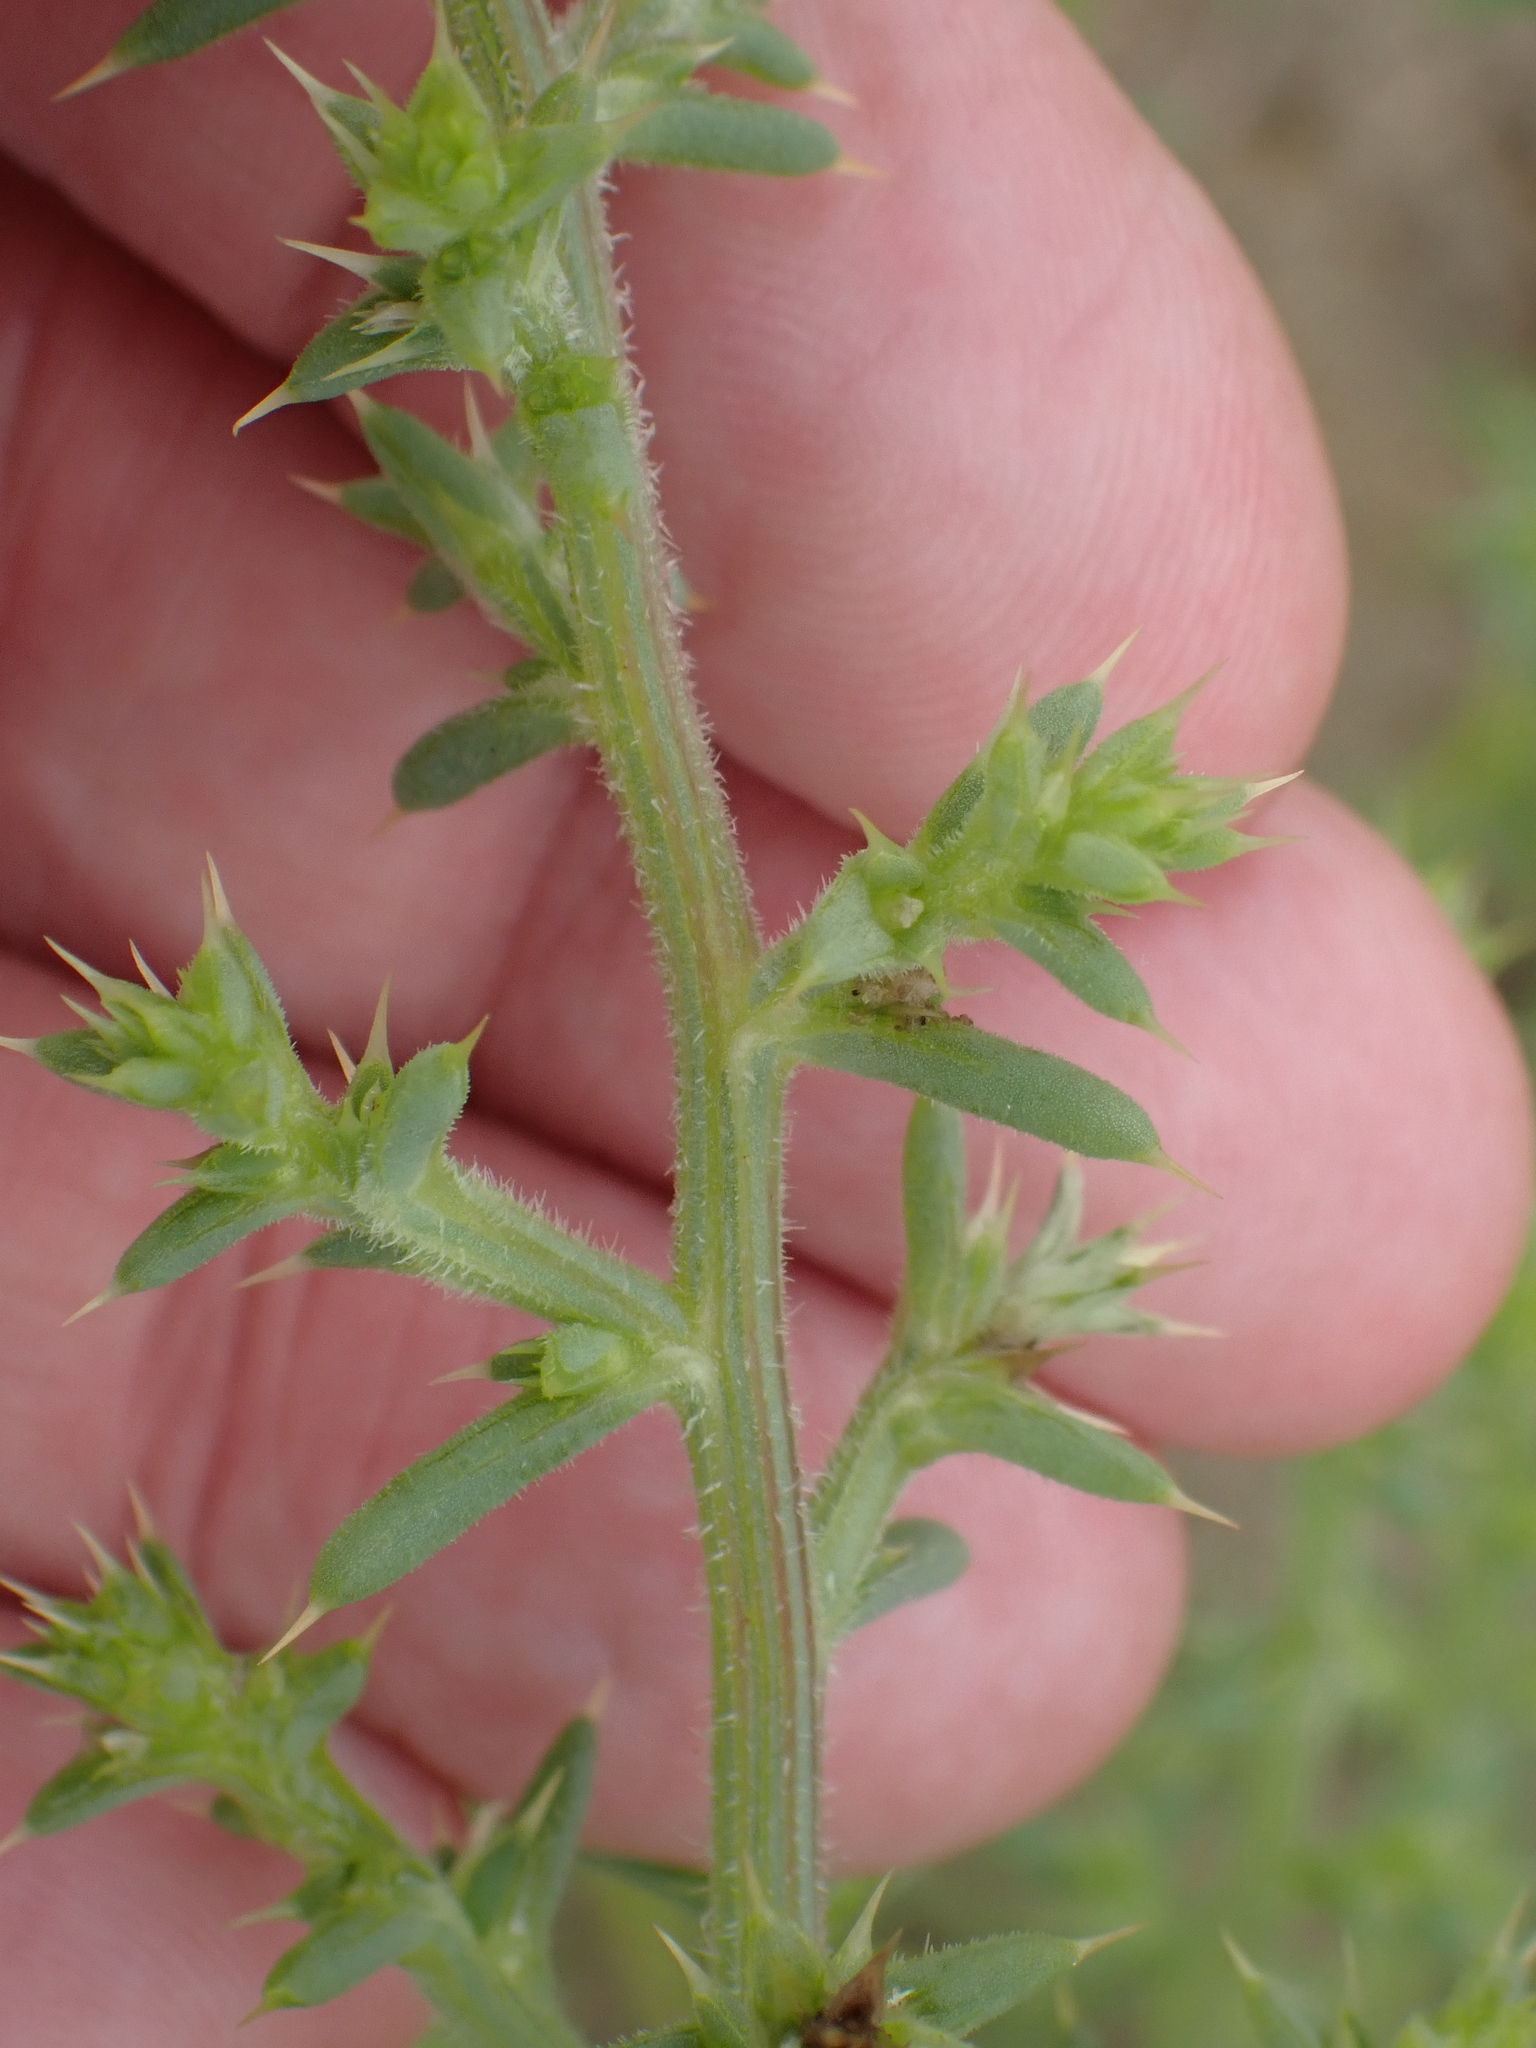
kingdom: Plantae
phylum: Tracheophyta
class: Magnoliopsida
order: Caryophyllales
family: Amaranthaceae
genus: Salsola
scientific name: Salsola kali
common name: Saltwort
